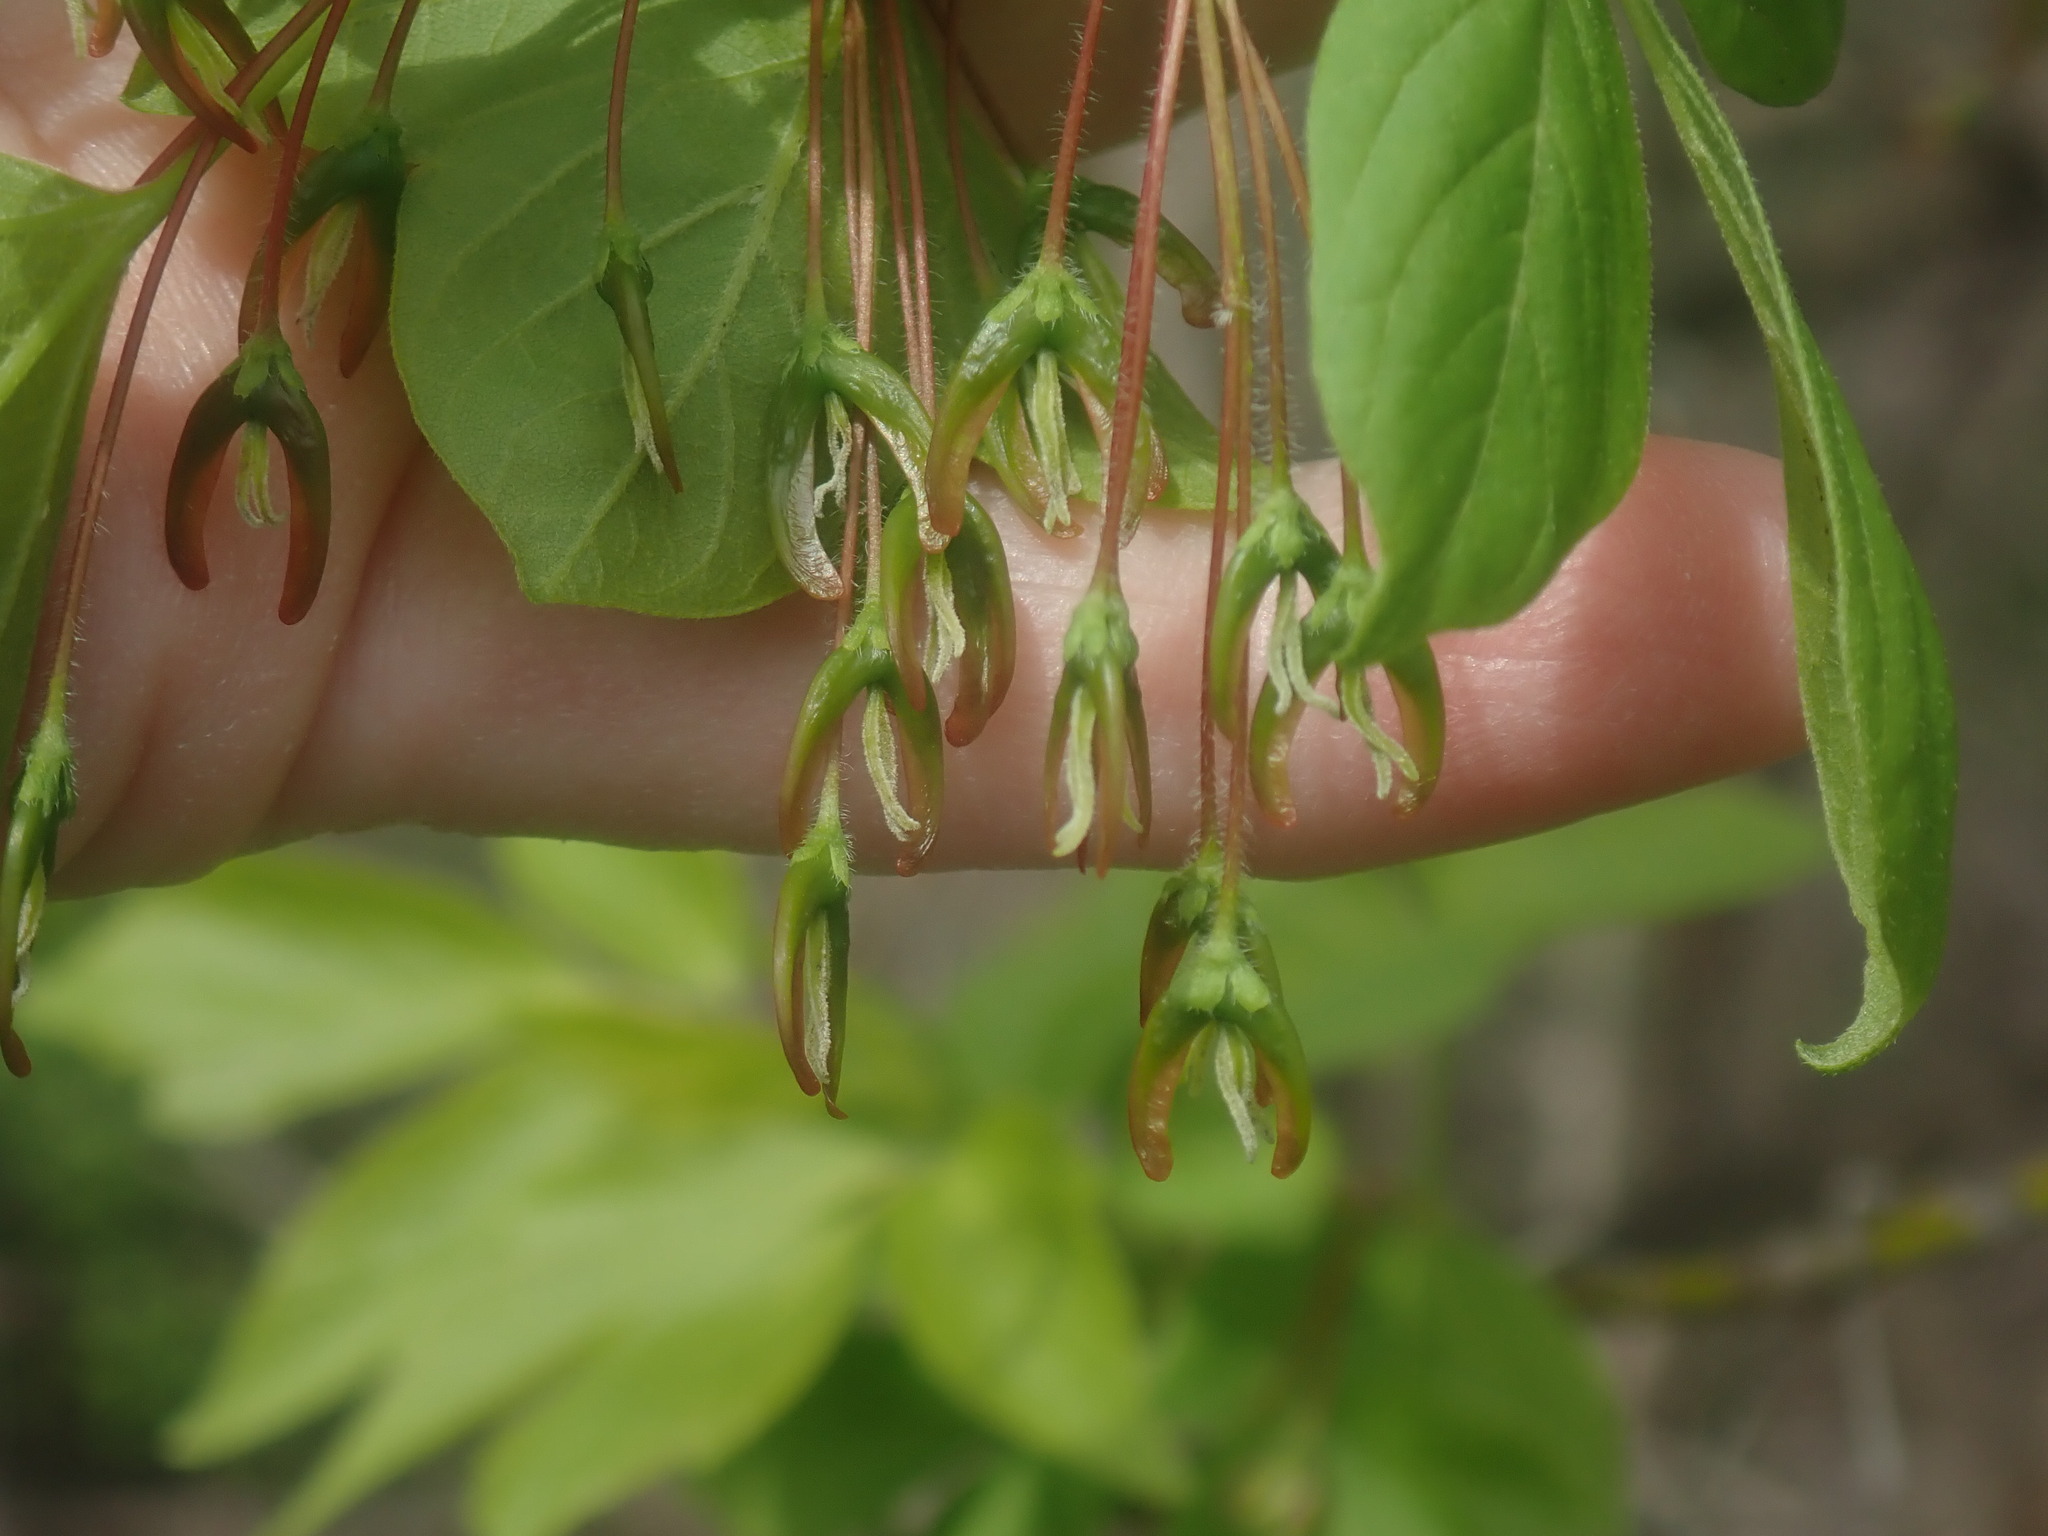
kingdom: Plantae
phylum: Tracheophyta
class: Magnoliopsida
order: Sapindales
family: Sapindaceae
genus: Acer
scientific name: Acer negundo
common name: Ashleaf maple
